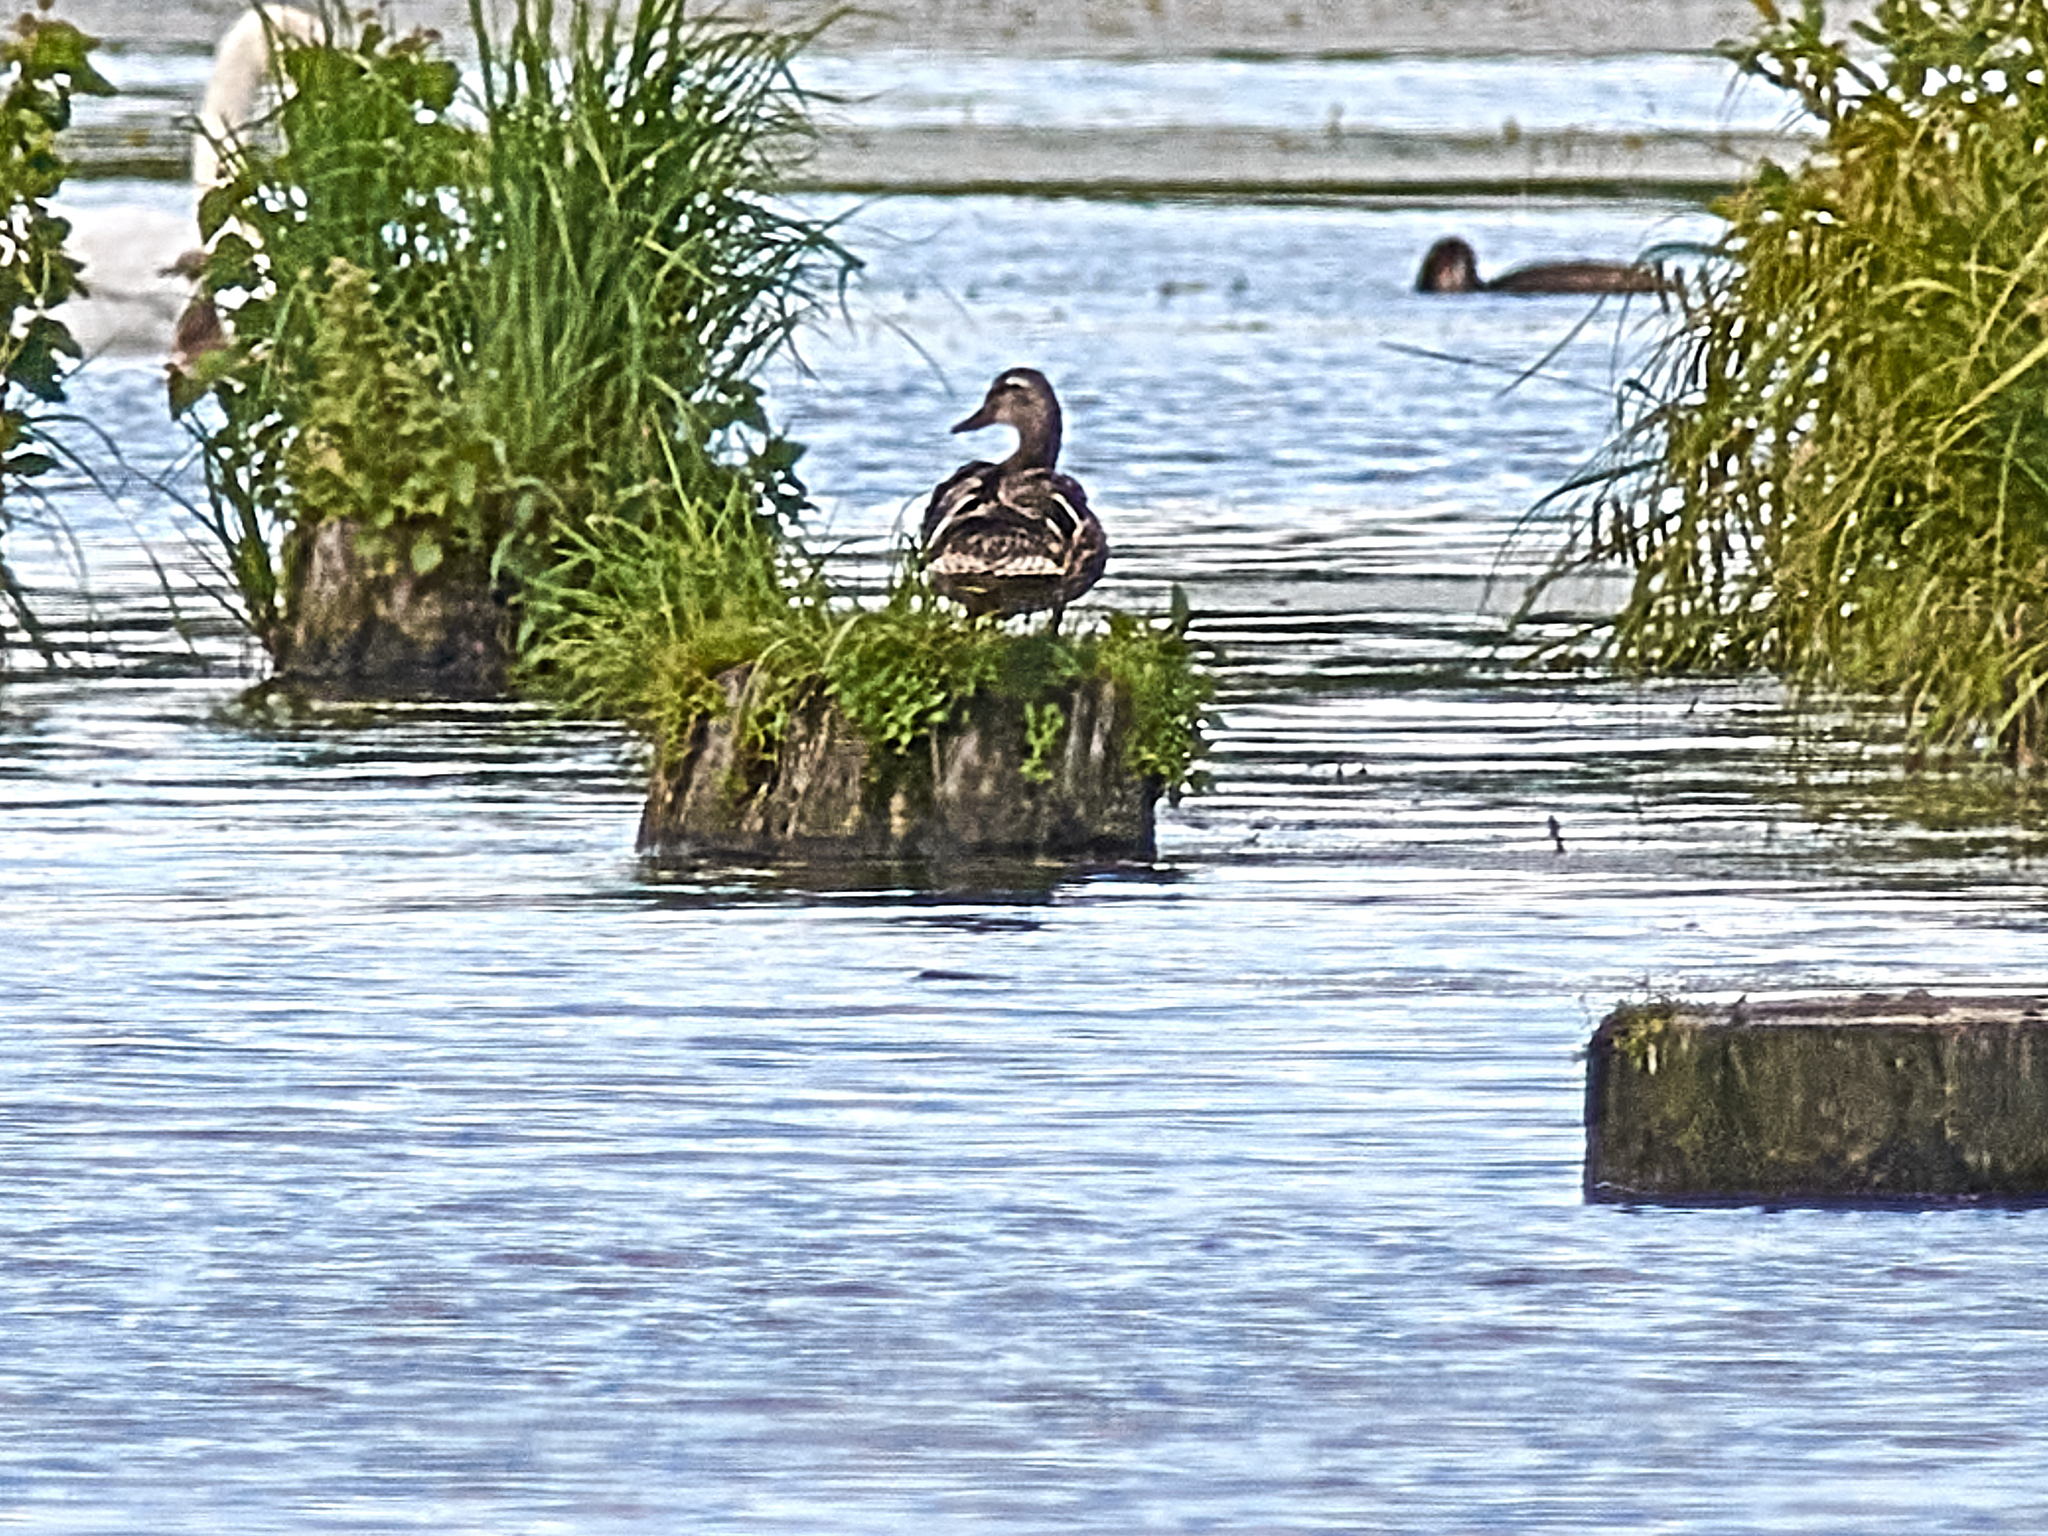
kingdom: Animalia
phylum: Chordata
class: Aves
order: Anseriformes
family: Anatidae
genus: Anas
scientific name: Anas platyrhynchos
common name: Mallard
